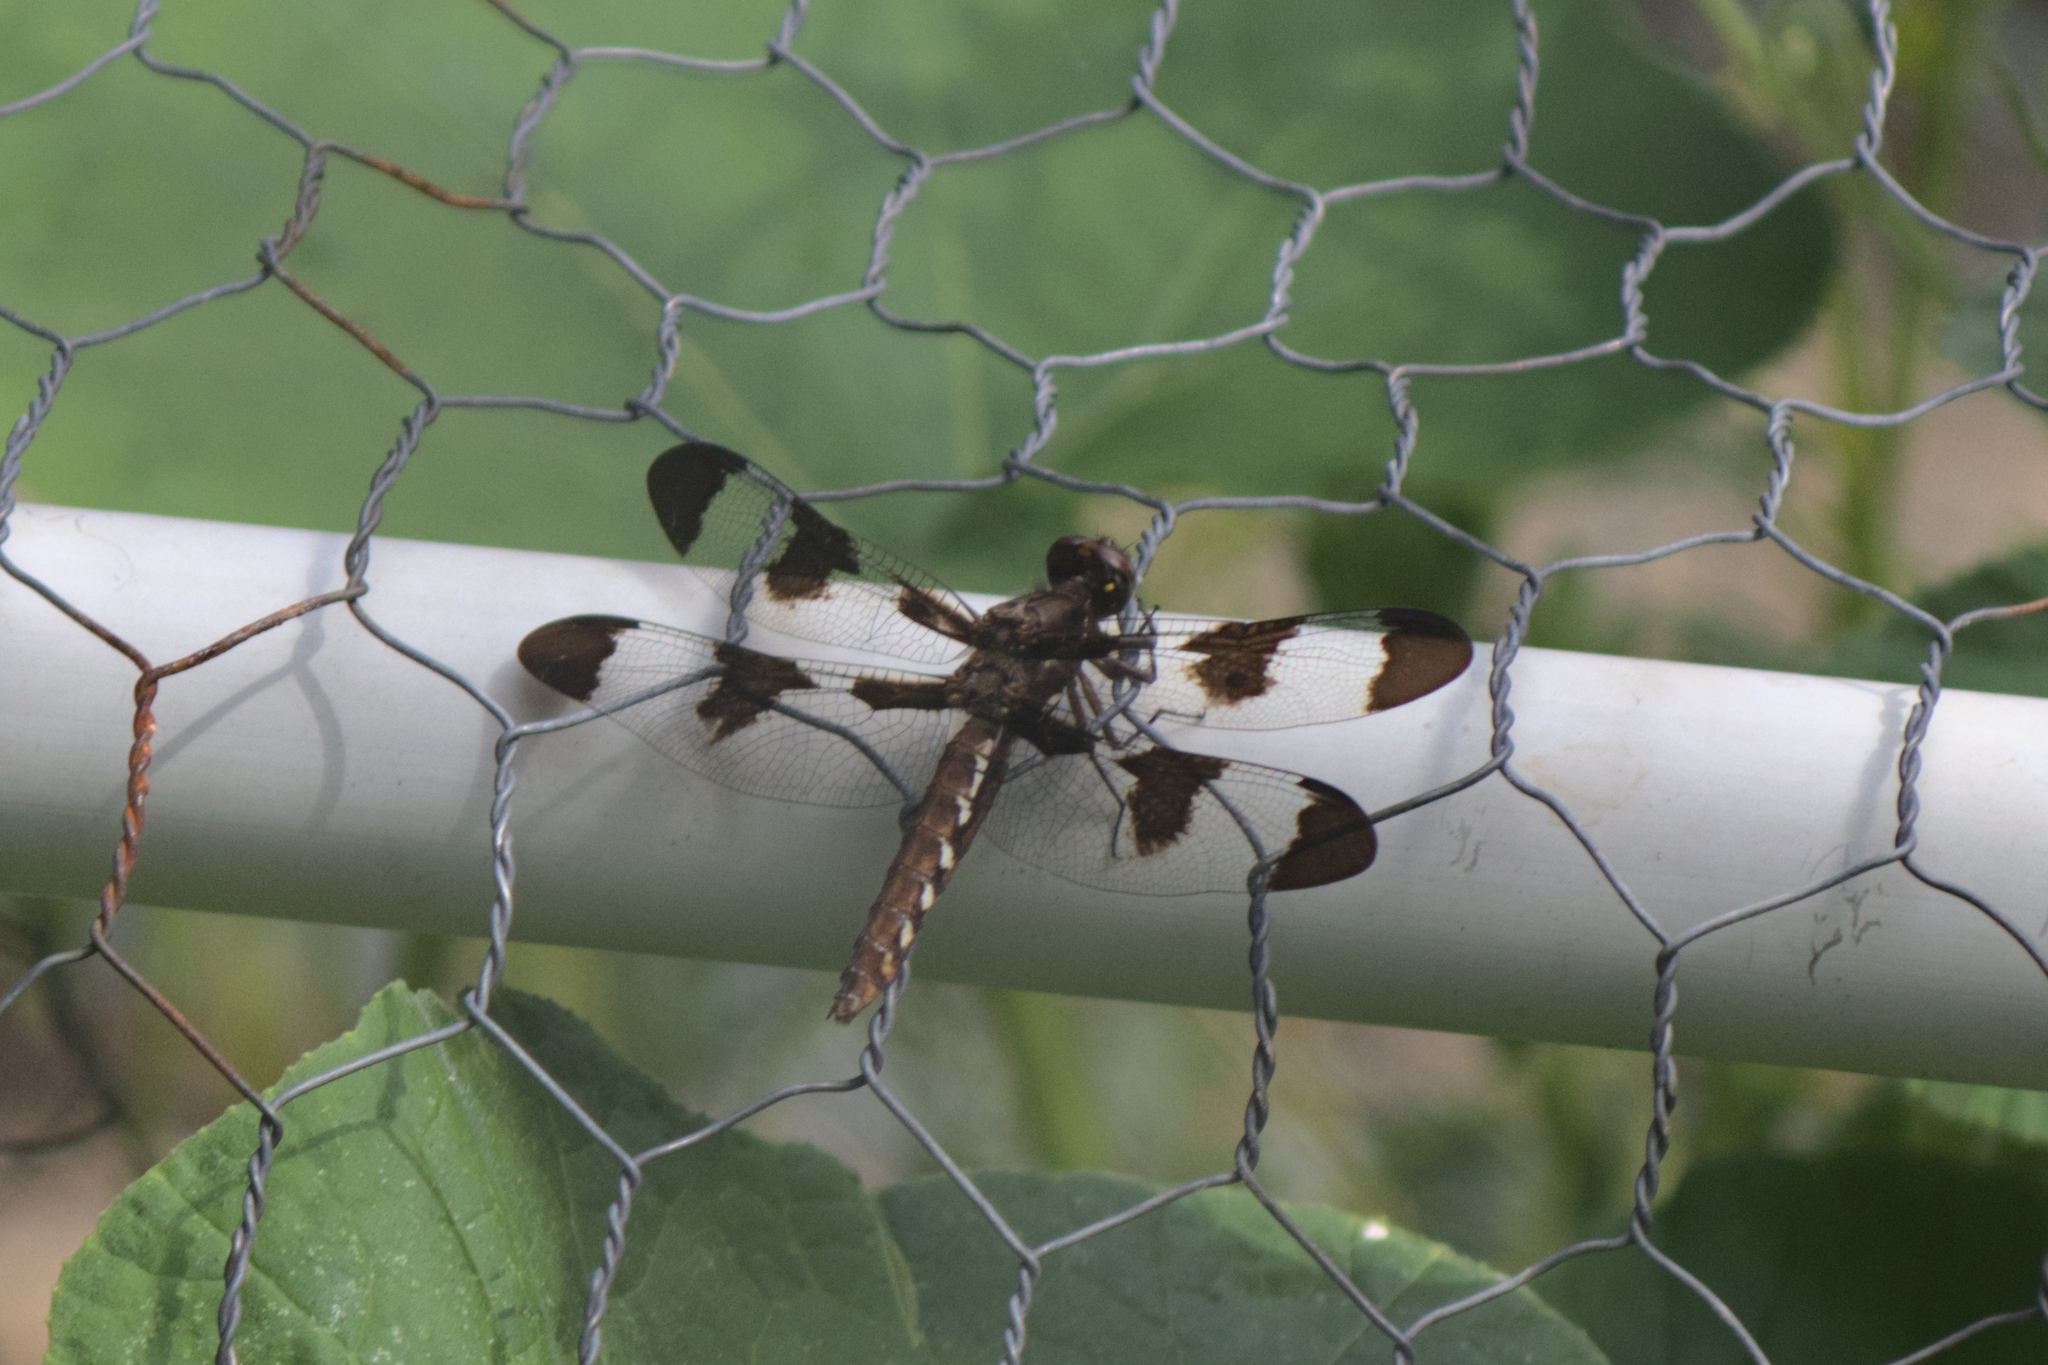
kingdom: Animalia
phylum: Arthropoda
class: Insecta
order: Odonata
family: Libellulidae
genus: Plathemis
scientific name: Plathemis lydia
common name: Common whitetail
